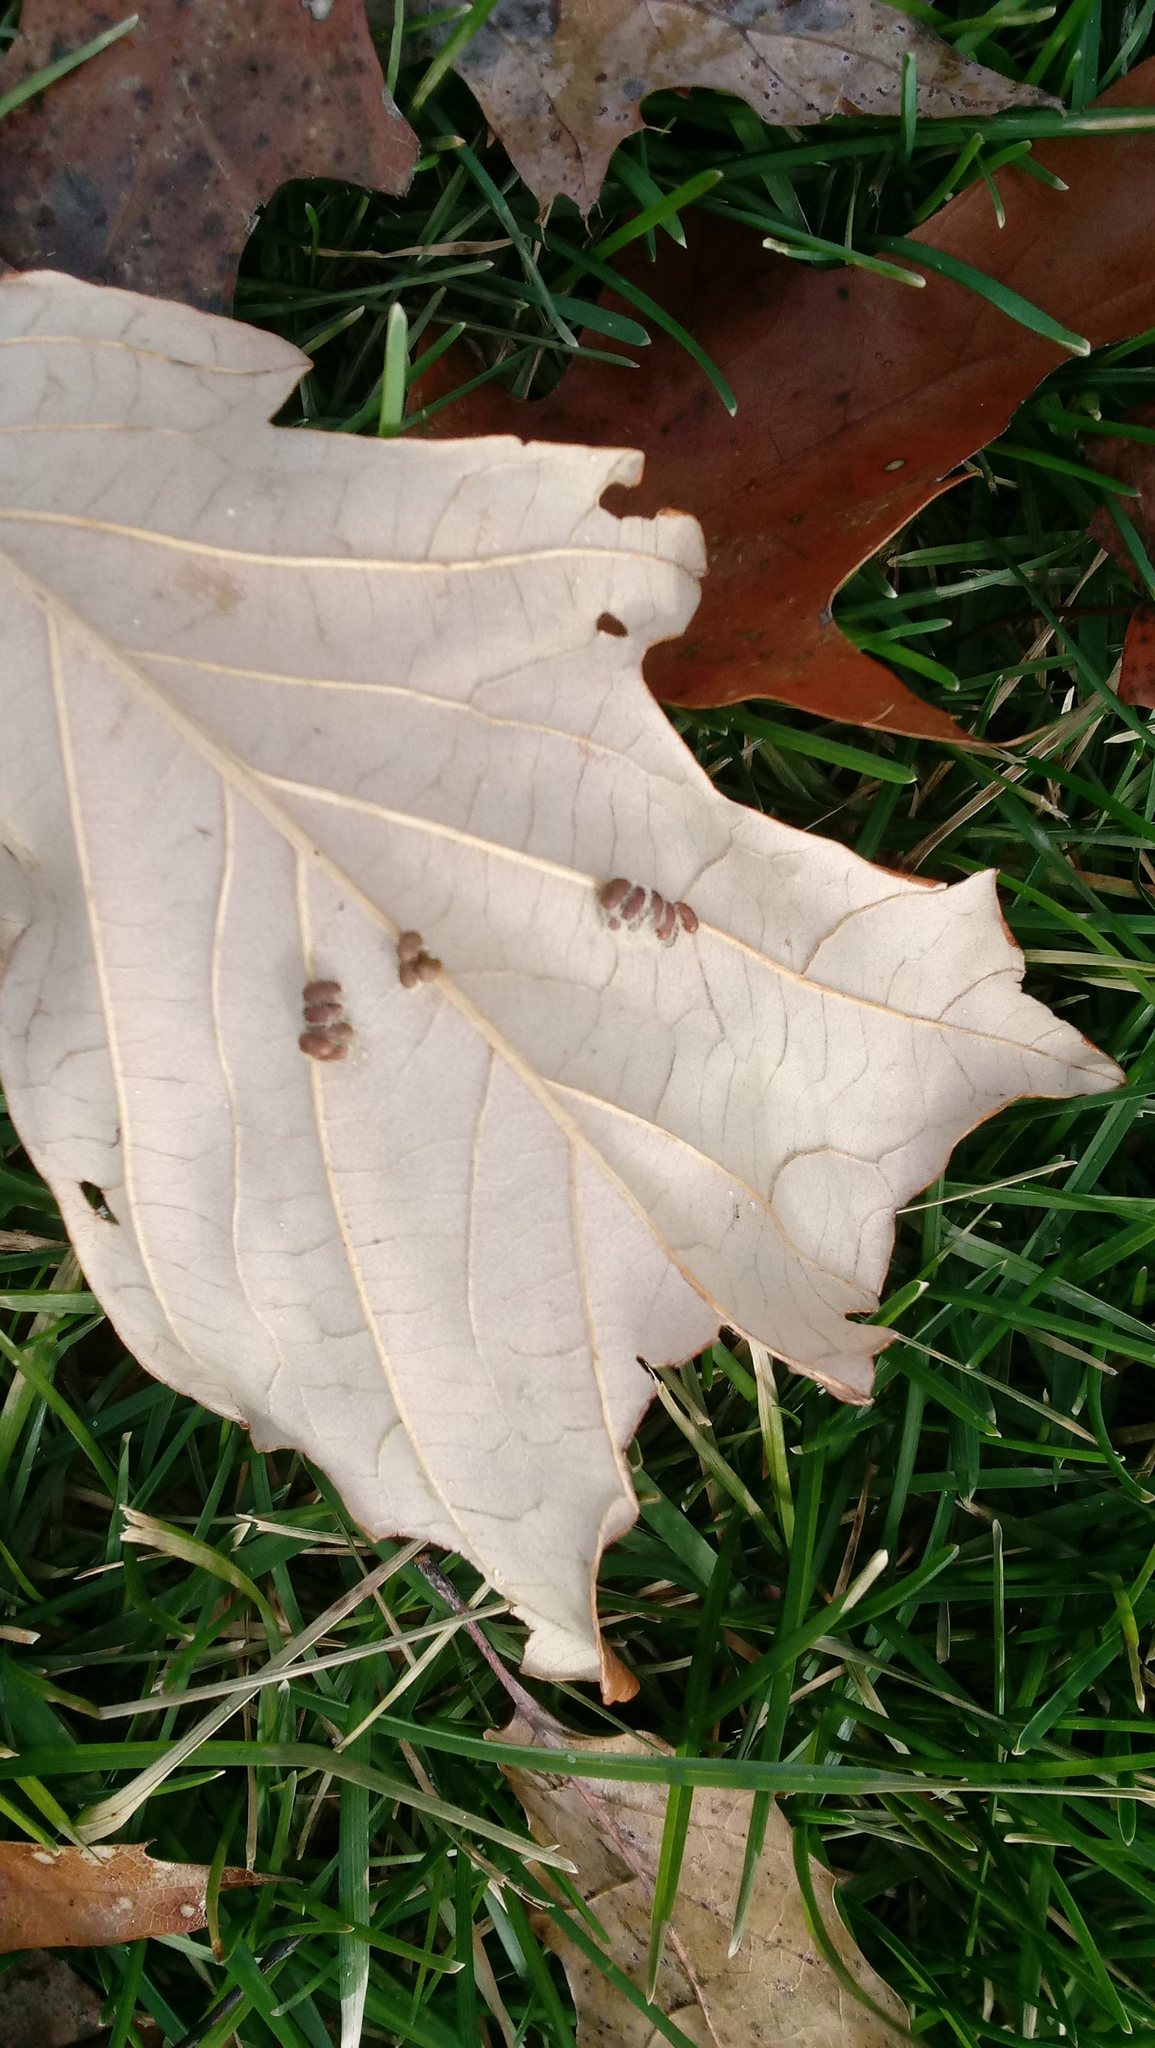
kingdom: Animalia
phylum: Arthropoda
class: Insecta
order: Hymenoptera
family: Cynipidae
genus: Andricus
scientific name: Andricus Druon ignotum
